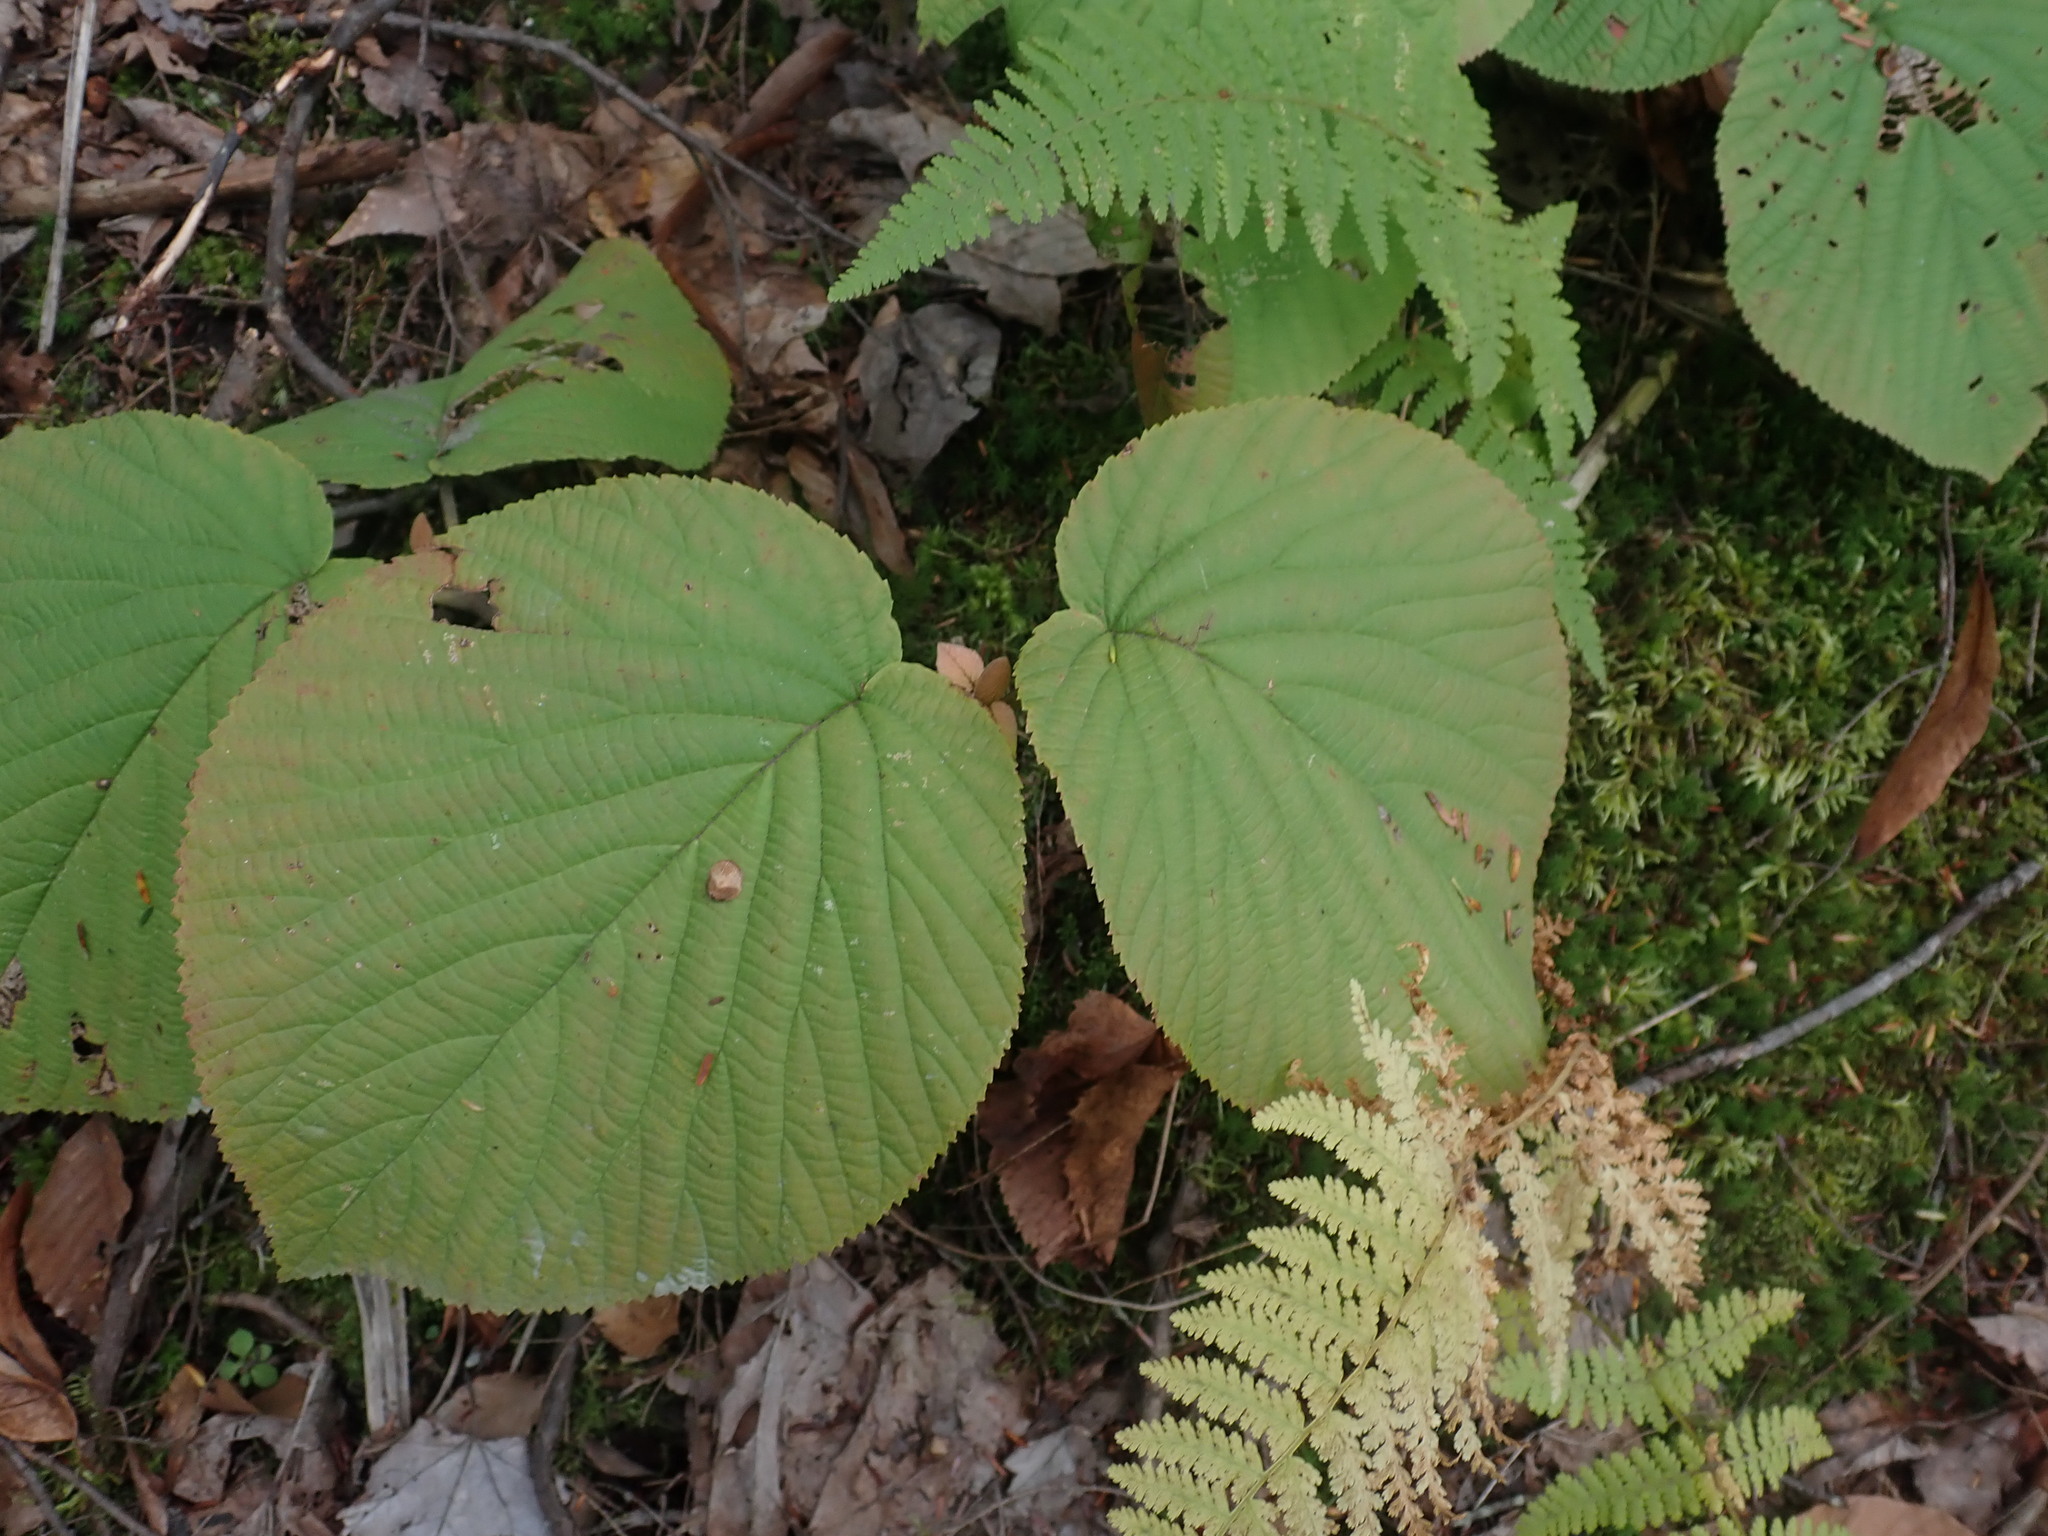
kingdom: Plantae
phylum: Tracheophyta
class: Magnoliopsida
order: Dipsacales
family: Viburnaceae
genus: Viburnum
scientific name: Viburnum lantanoides
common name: Hobblebush
